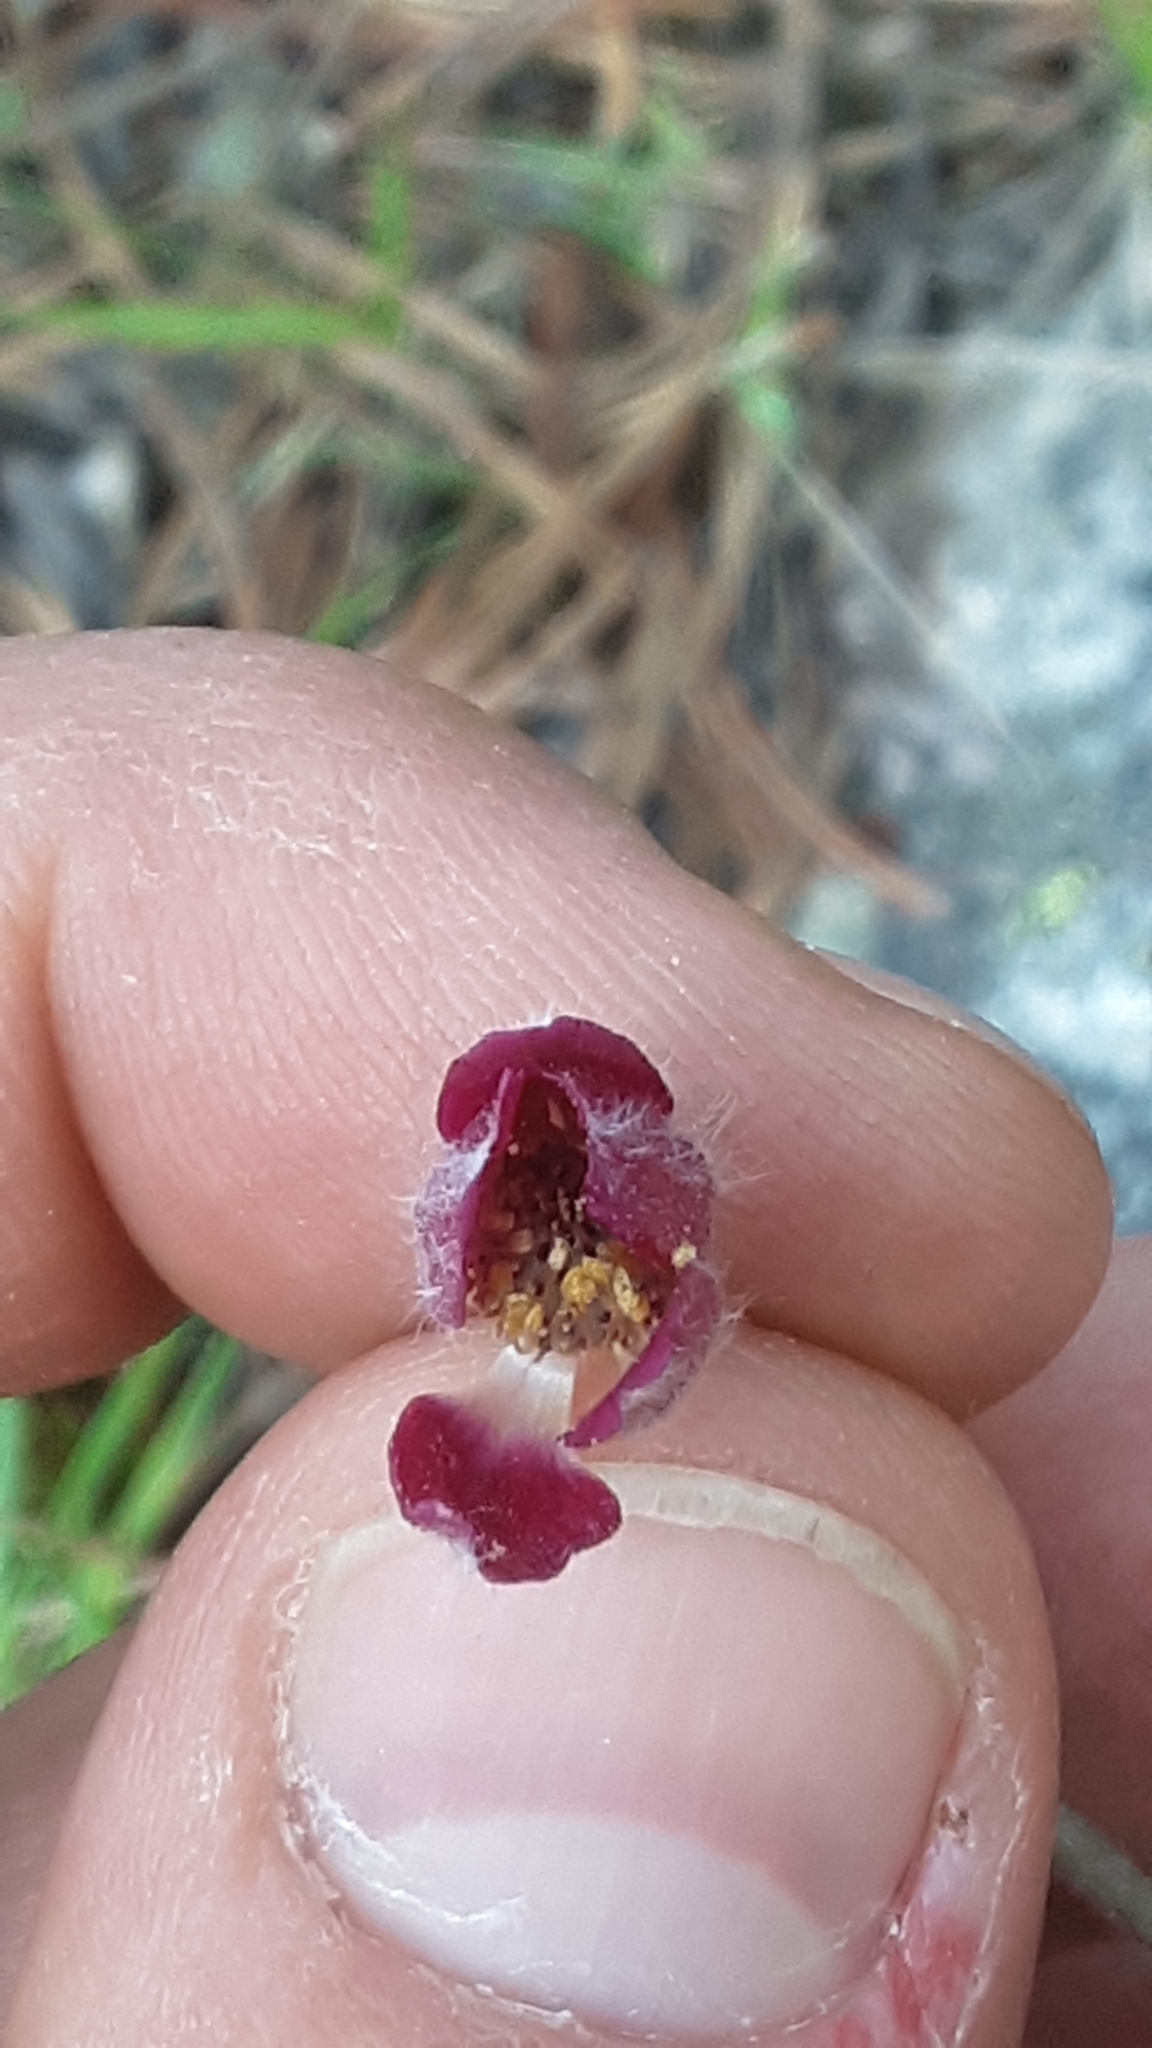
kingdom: Plantae
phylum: Tracheophyta
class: Magnoliopsida
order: Ranunculales
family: Ranunculaceae
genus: Anemone
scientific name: Anemone multifida
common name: Bird's-foot anemone
